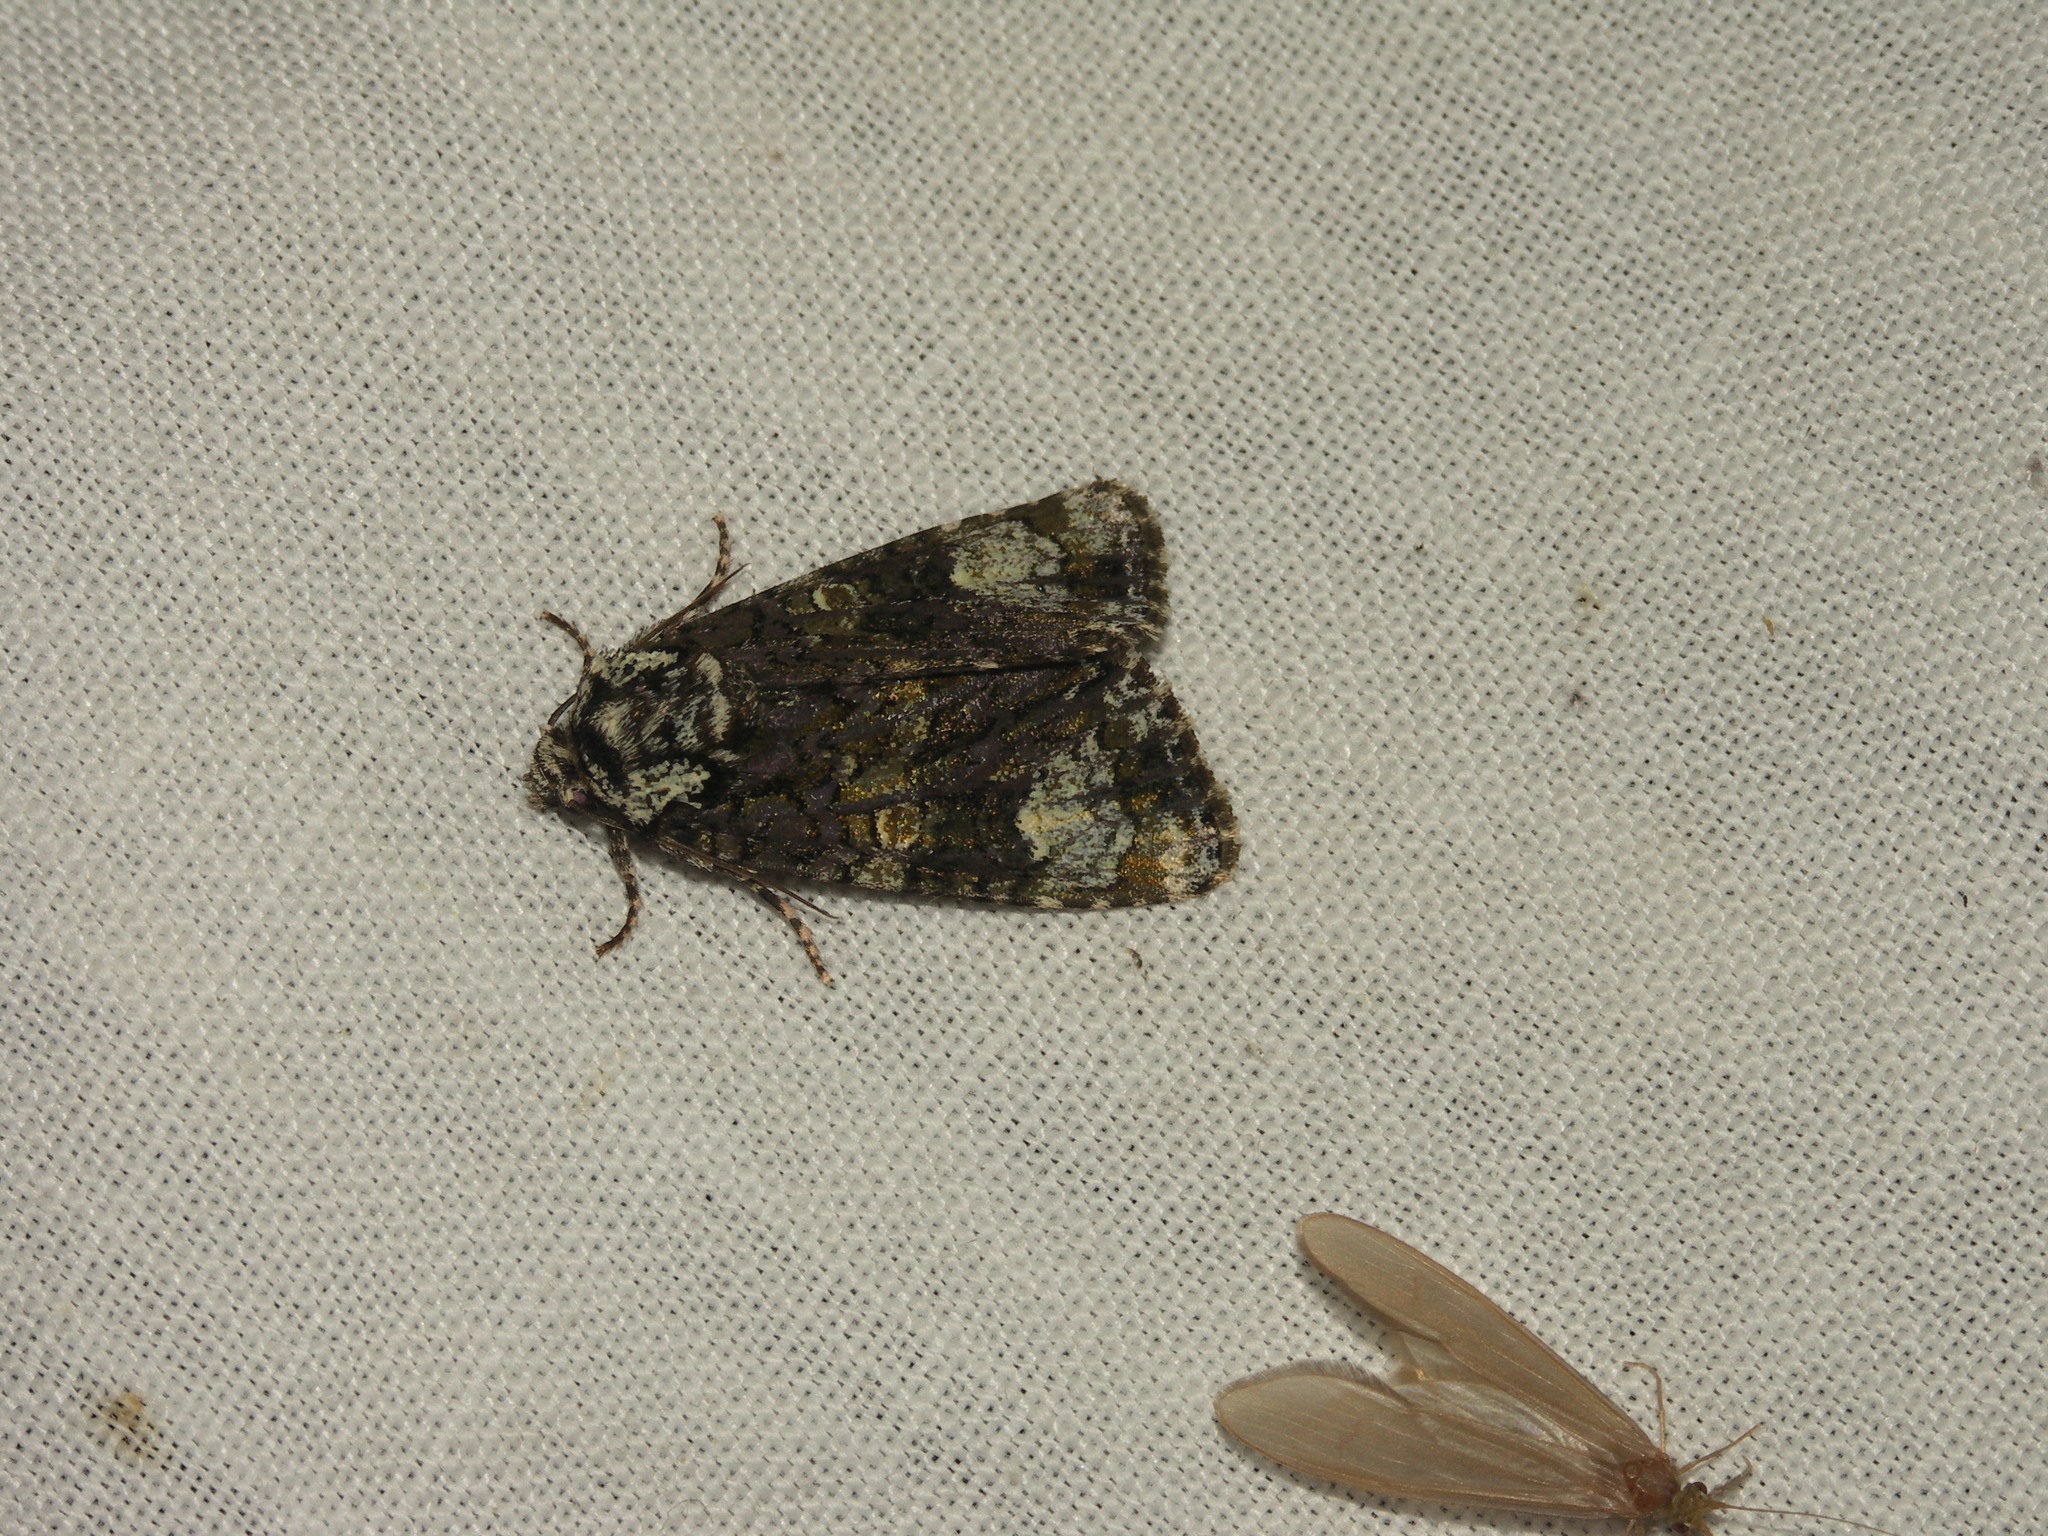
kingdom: Animalia
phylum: Arthropoda
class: Insecta
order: Lepidoptera
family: Noctuidae
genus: Craniophora
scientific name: Craniophora ligustri
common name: Coronet
